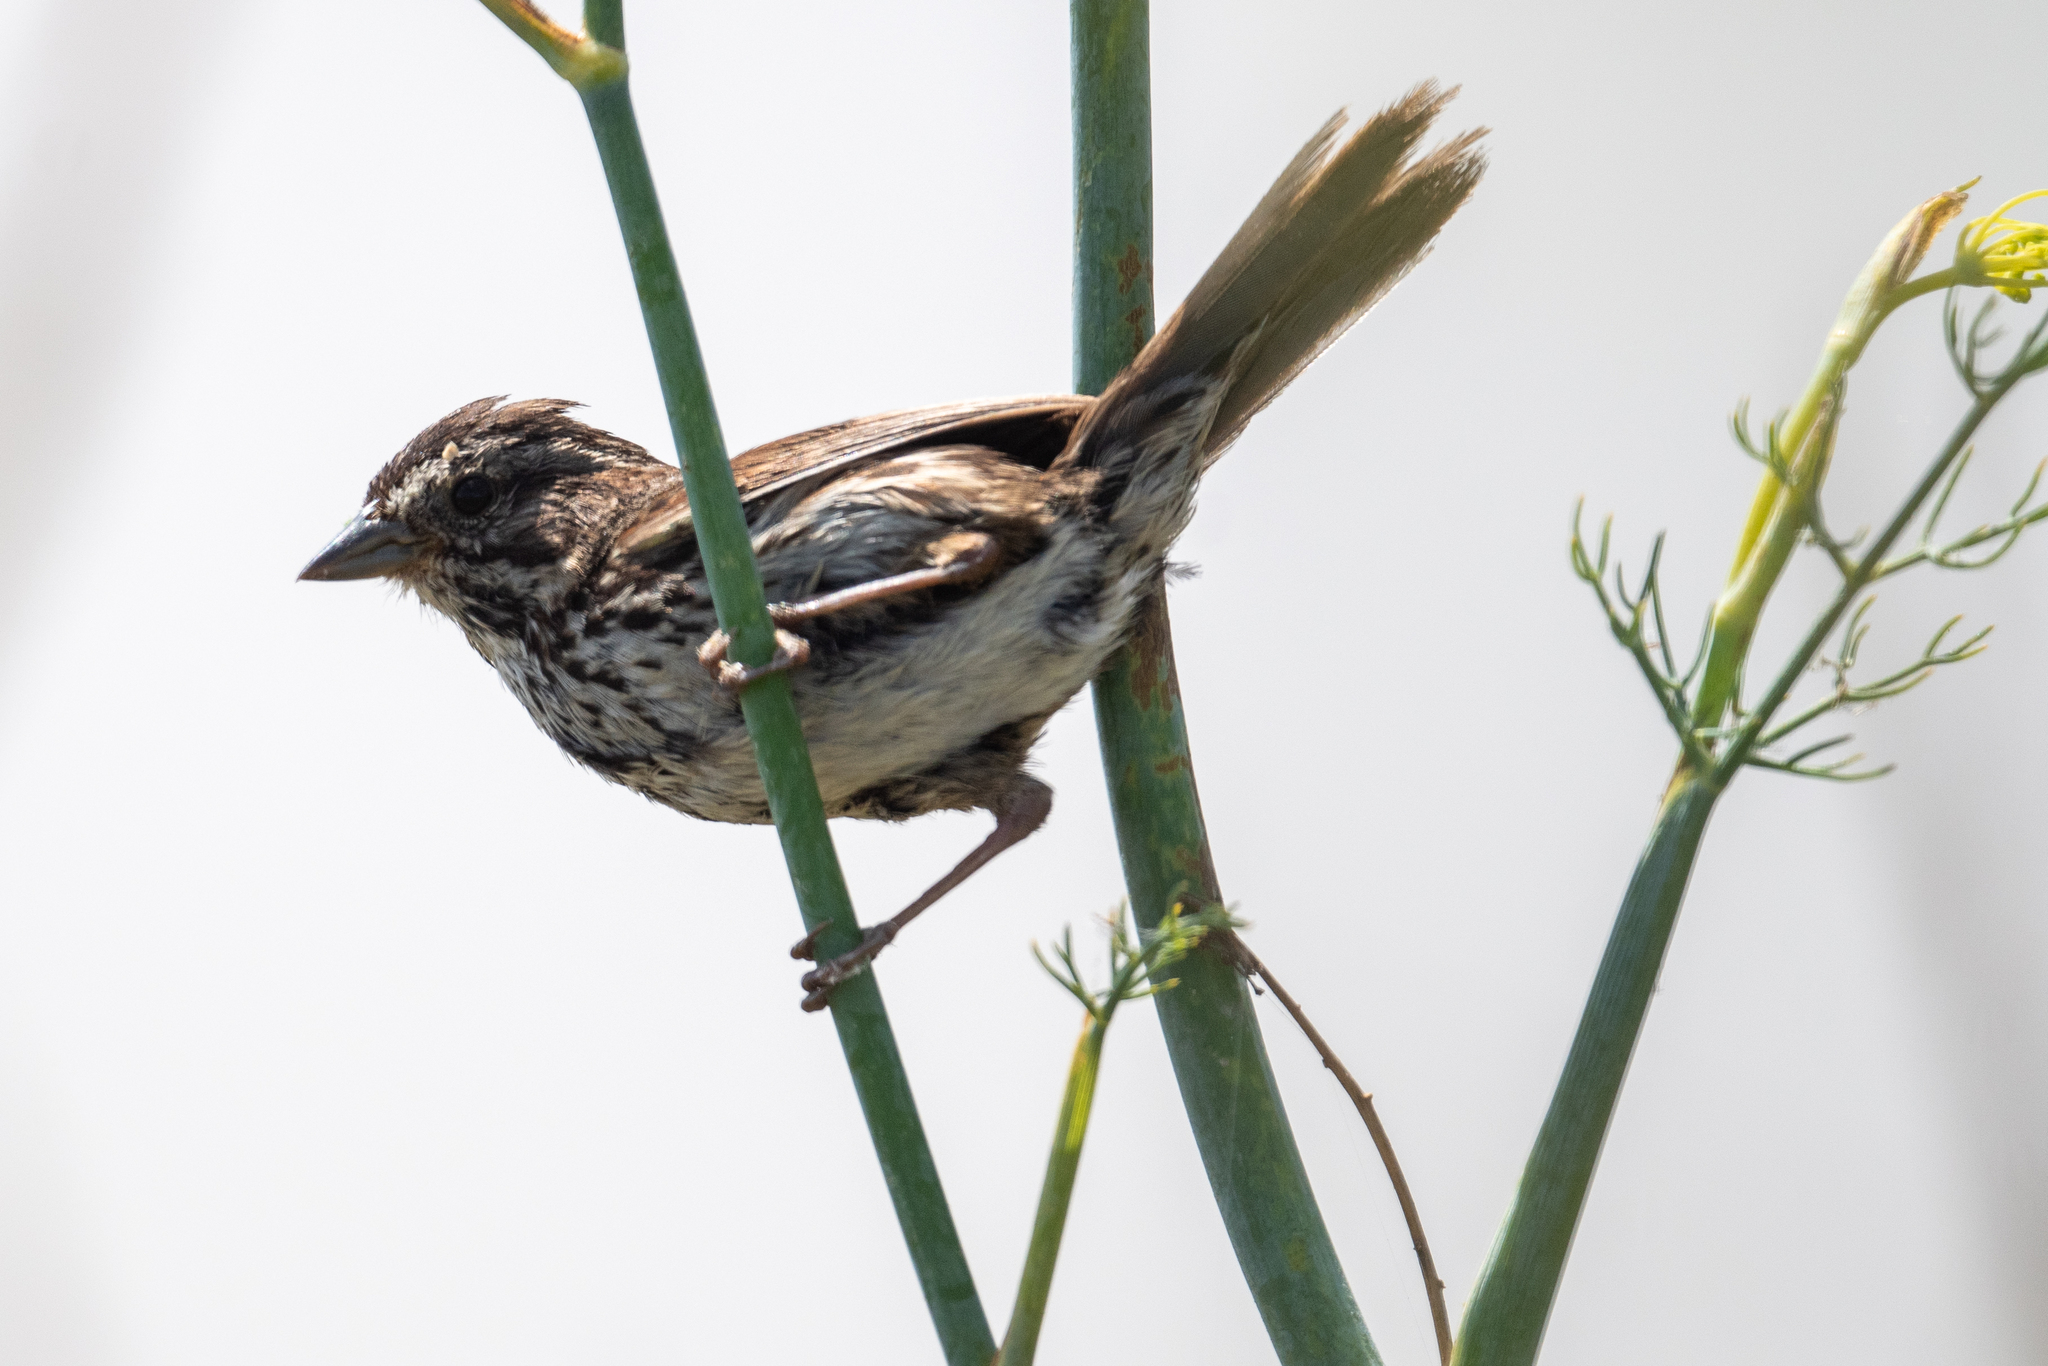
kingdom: Animalia
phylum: Chordata
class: Aves
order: Passeriformes
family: Passerellidae
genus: Melospiza
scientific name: Melospiza melodia
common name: Song sparrow
